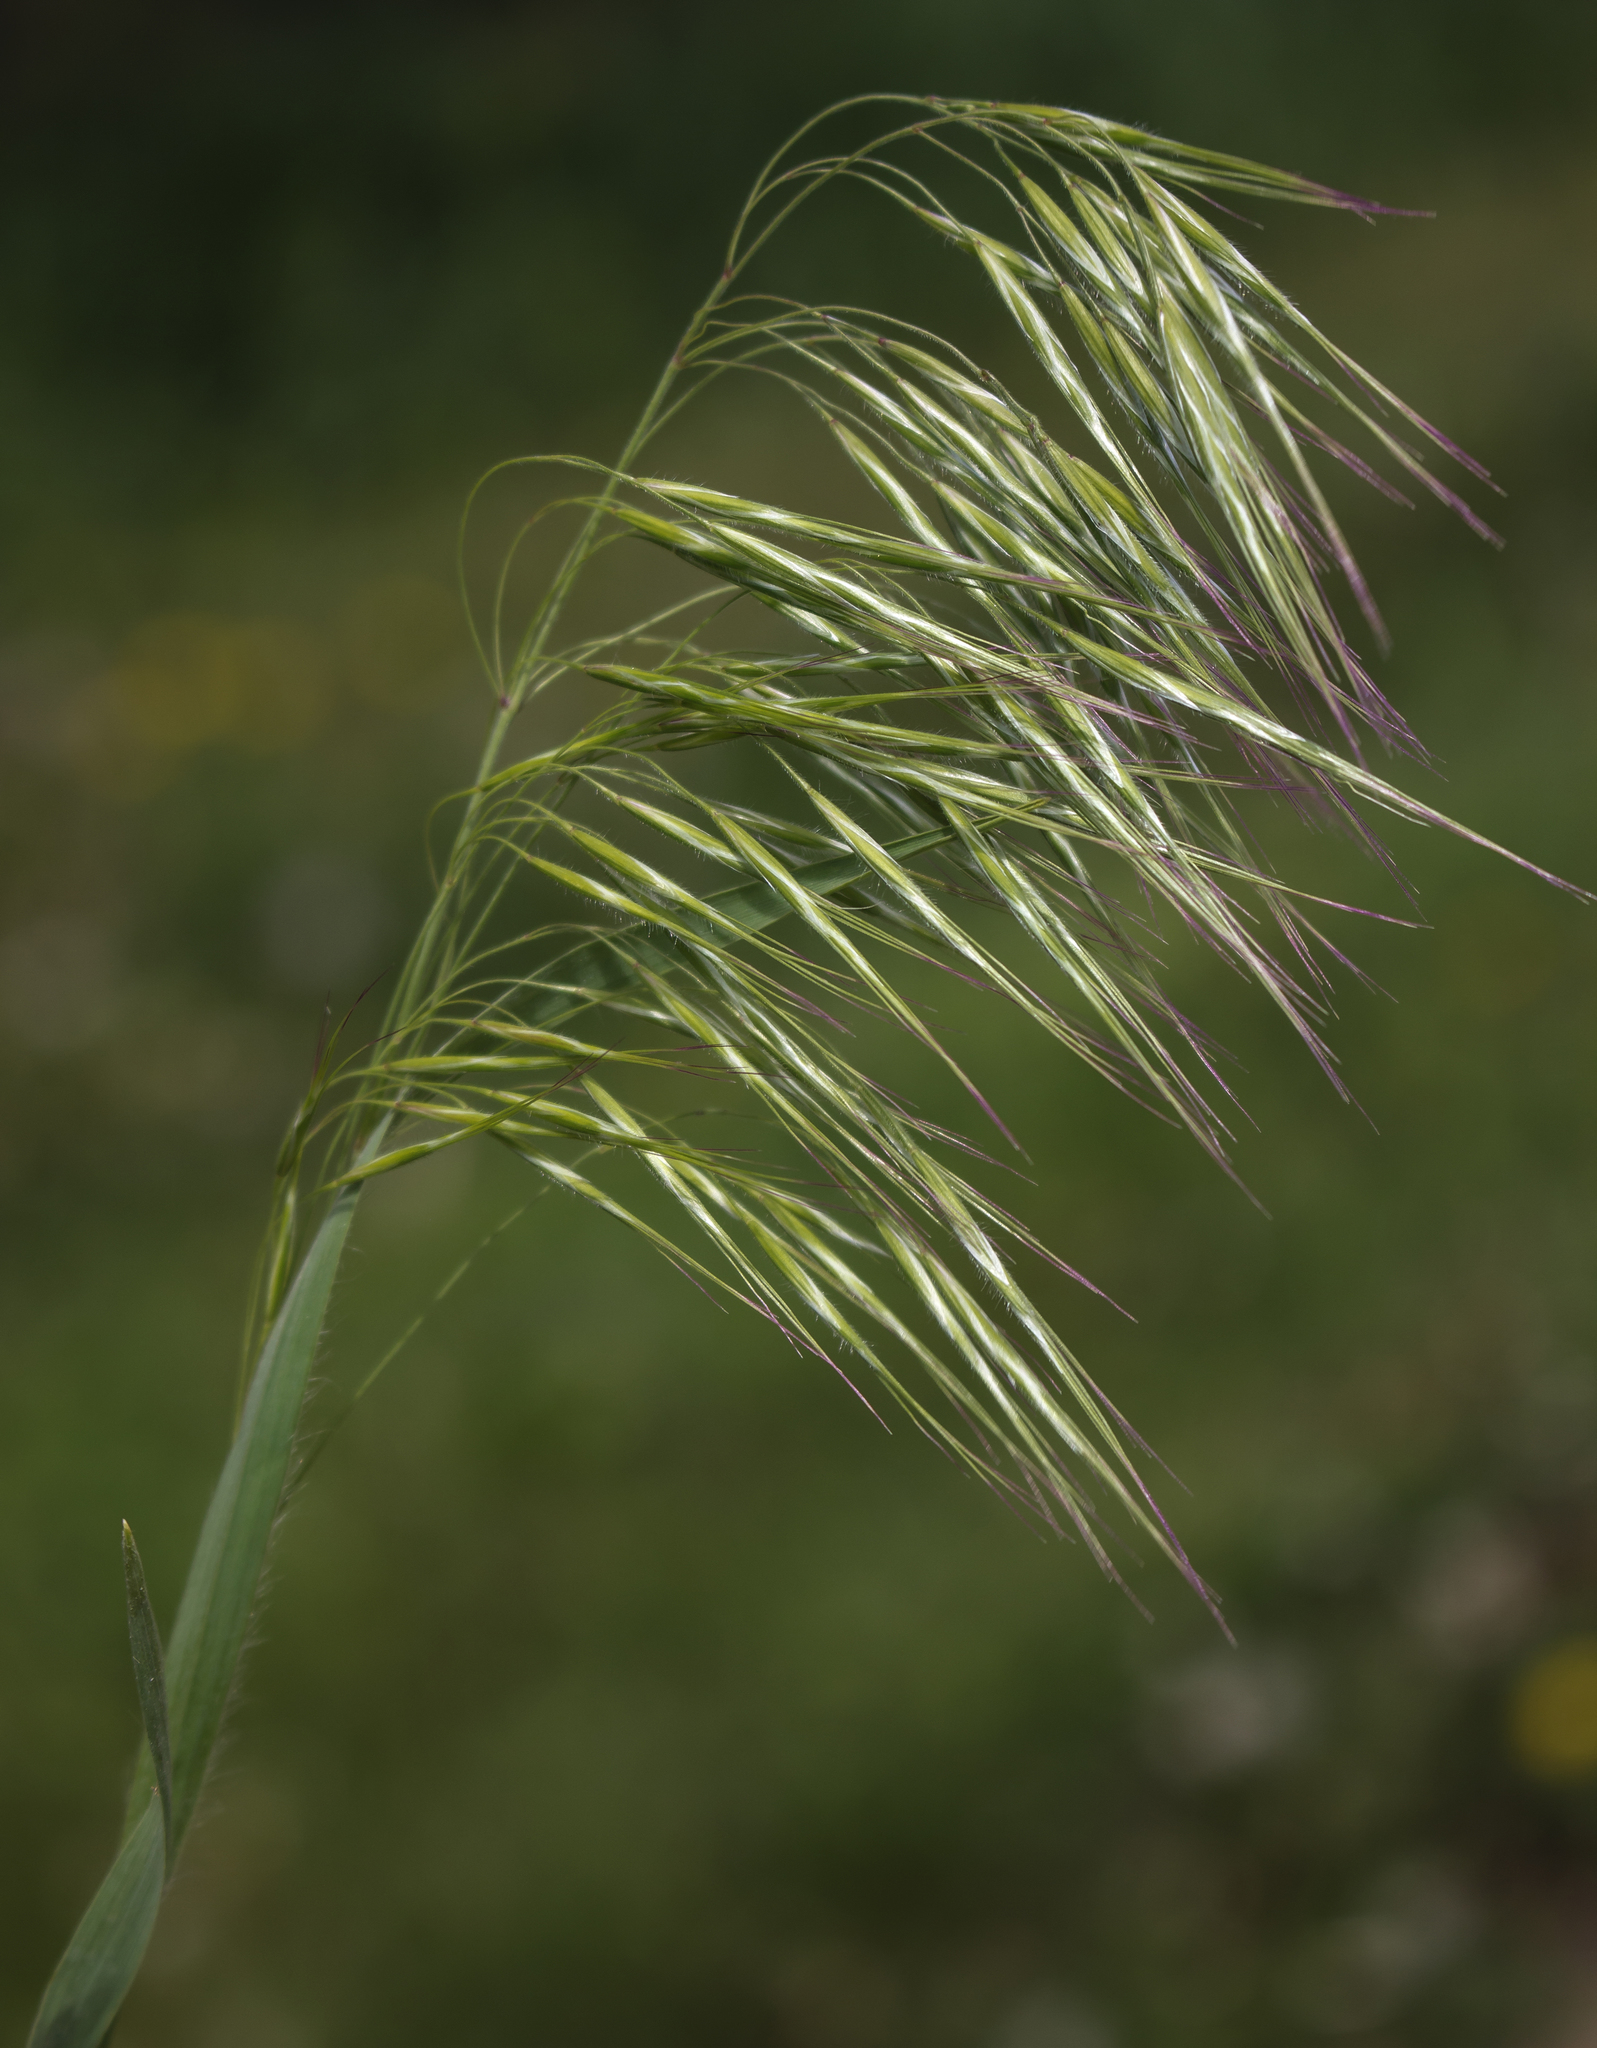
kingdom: Plantae
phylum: Tracheophyta
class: Liliopsida
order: Poales
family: Poaceae
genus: Bromus
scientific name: Bromus tectorum
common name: Cheatgrass
